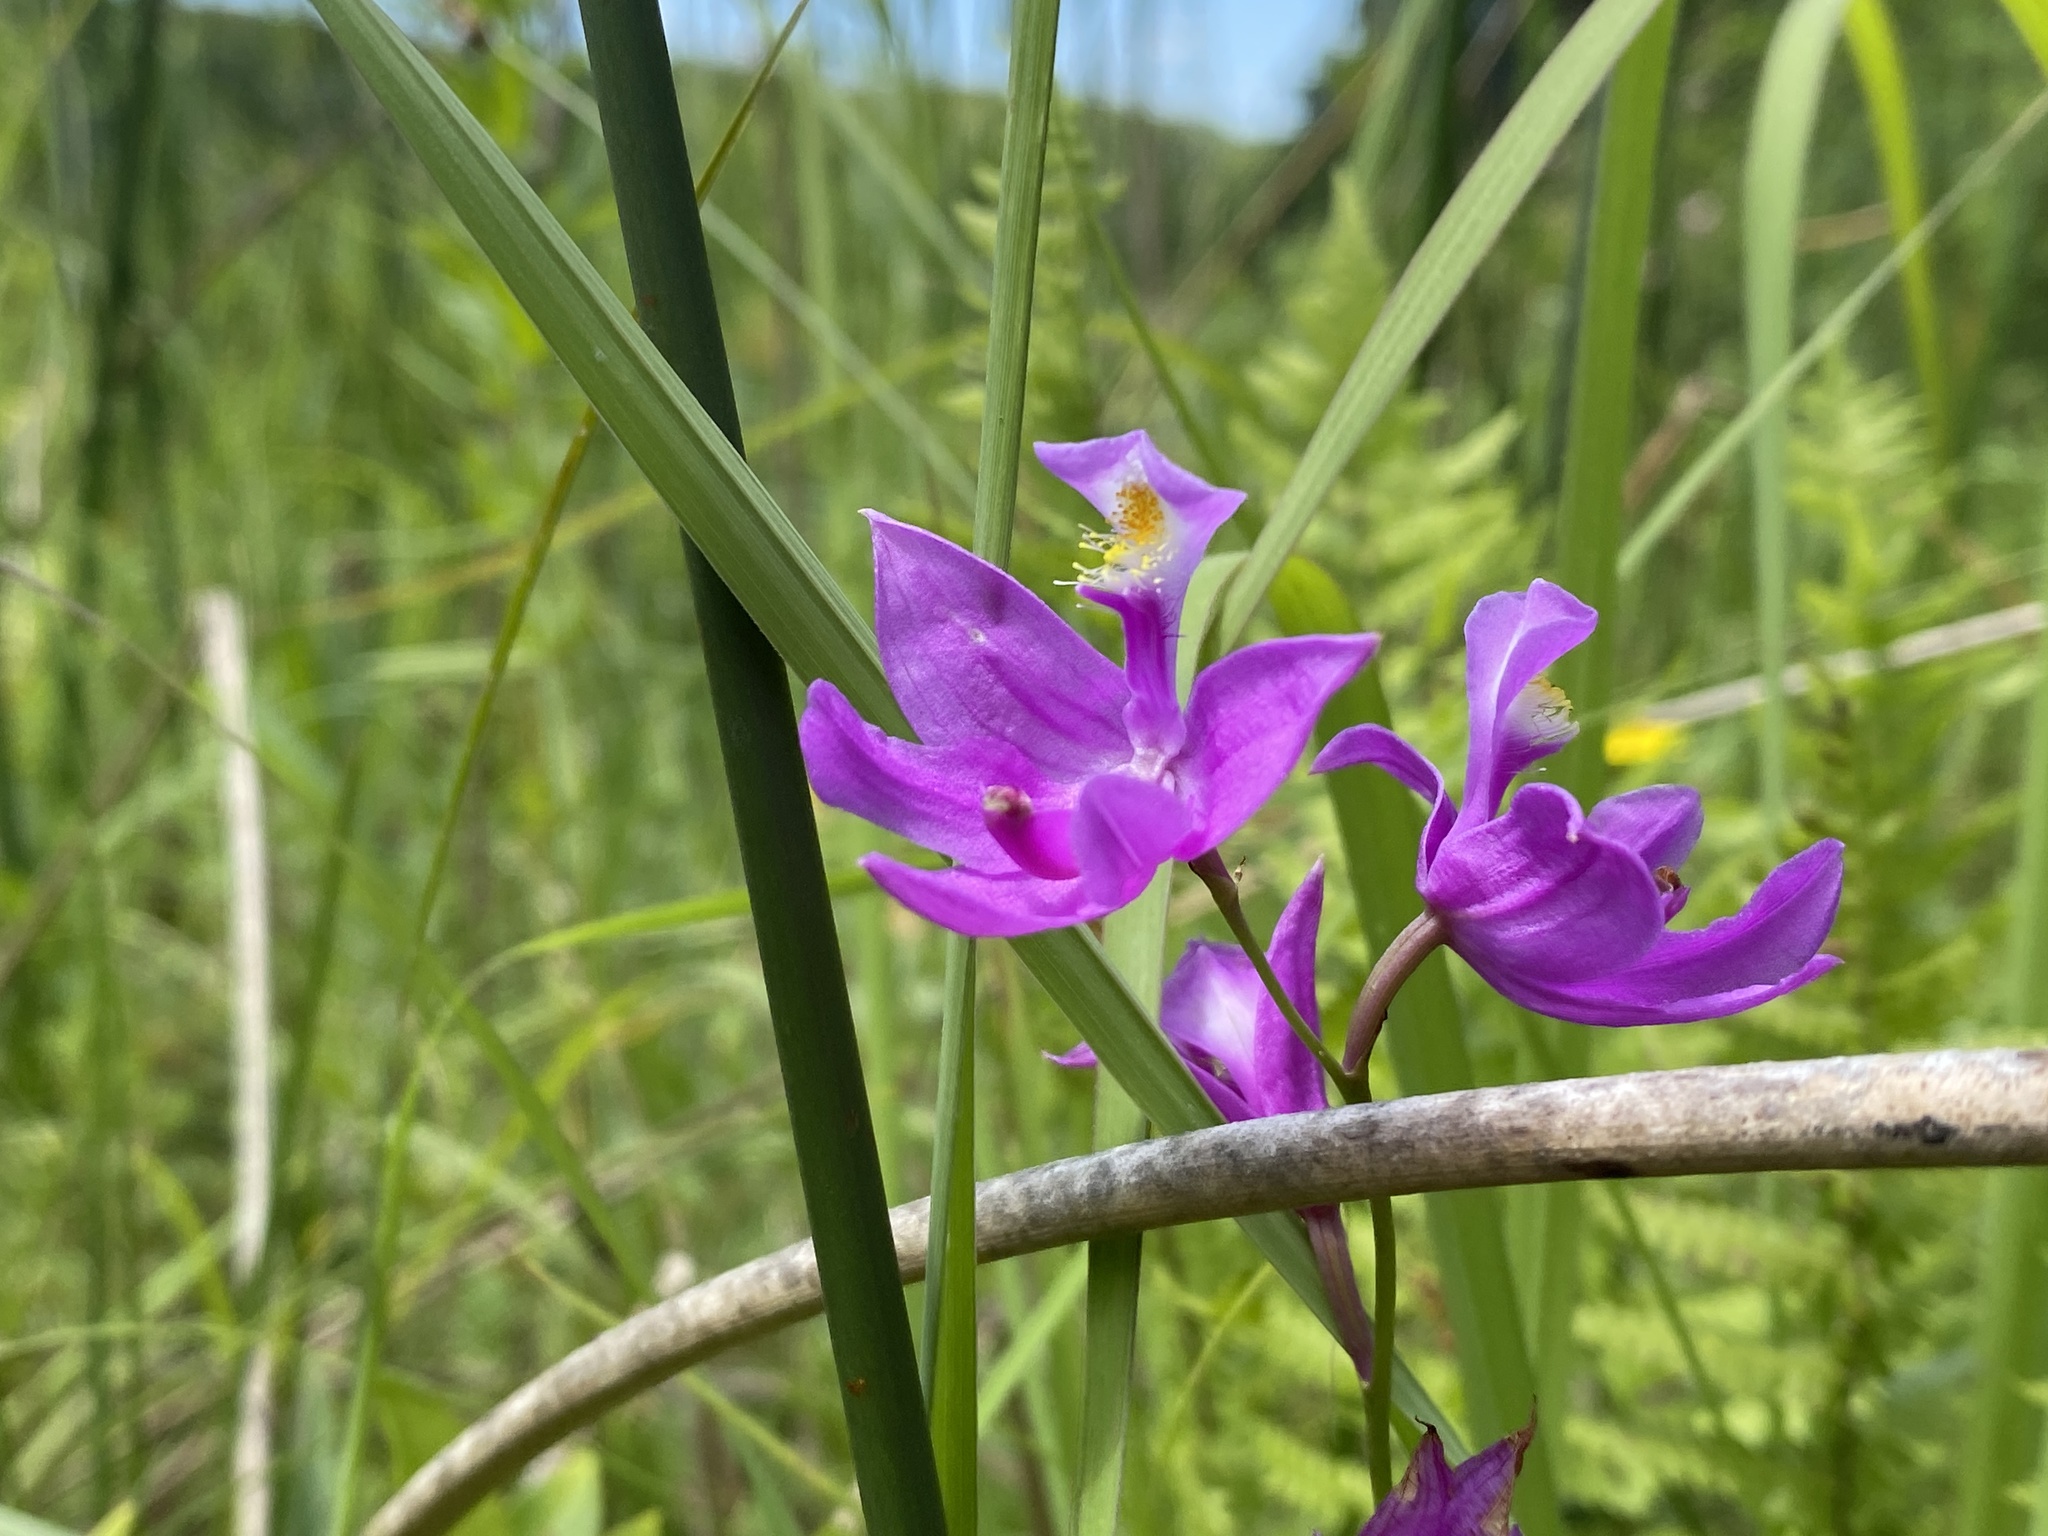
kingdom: Plantae
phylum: Tracheophyta
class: Liliopsida
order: Asparagales
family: Orchidaceae
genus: Calopogon
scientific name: Calopogon tuberosus
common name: Grass-pink
